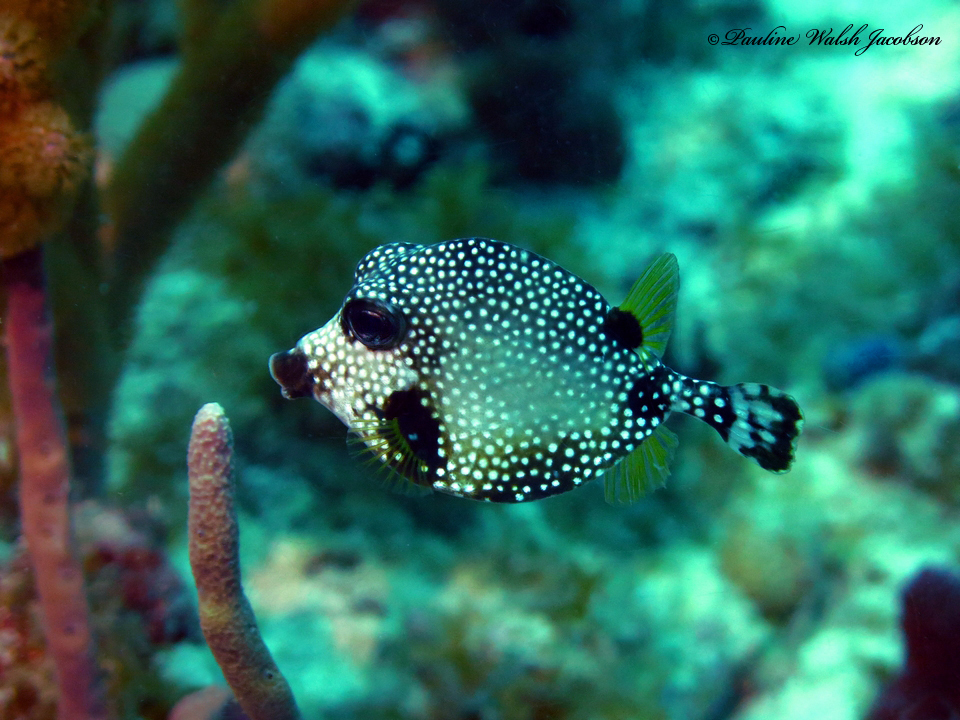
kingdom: Animalia
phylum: Chordata
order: Tetraodontiformes
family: Ostraciidae
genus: Lactophrys
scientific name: Lactophrys triqueter
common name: Smooth trunkfish
